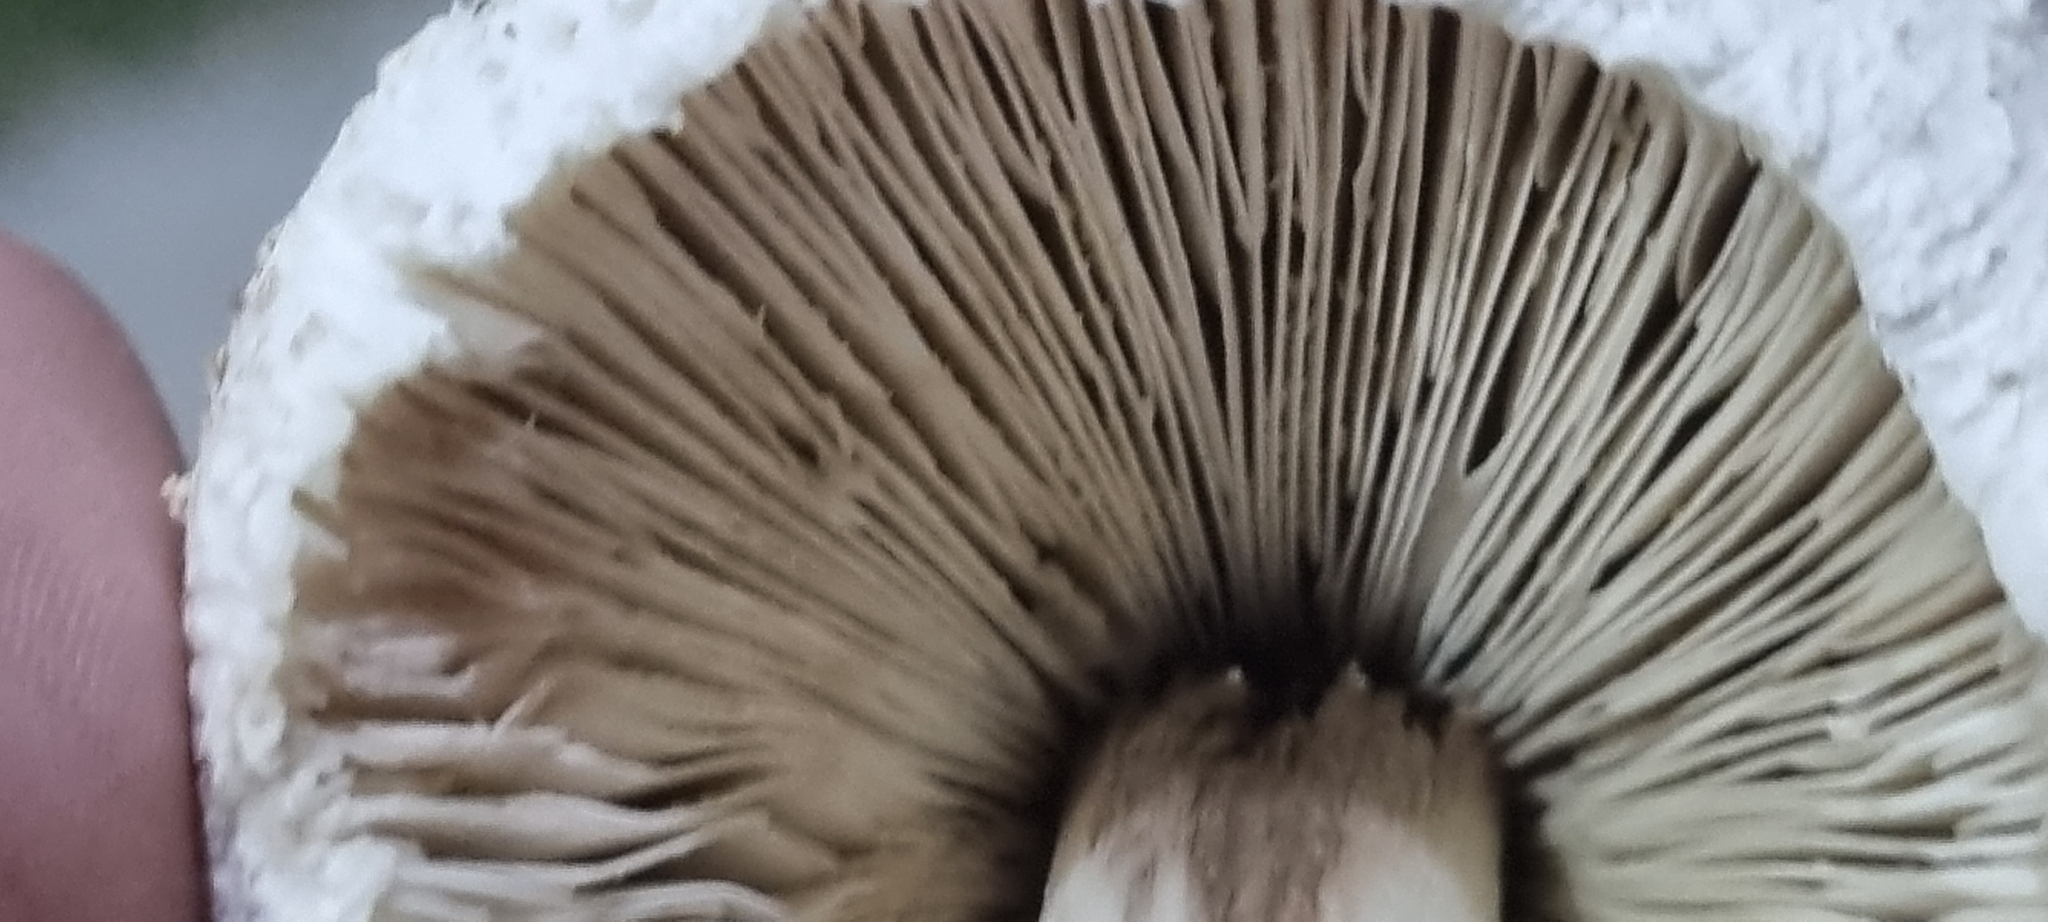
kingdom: Fungi
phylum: Basidiomycota
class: Agaricomycetes
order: Agaricales
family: Agaricaceae
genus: Chlorophyllum
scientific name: Chlorophyllum molybdites
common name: False parasol
